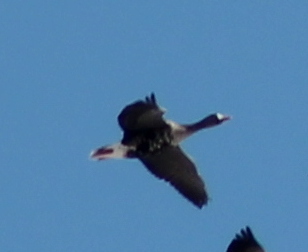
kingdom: Animalia
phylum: Chordata
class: Aves
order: Anseriformes
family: Anatidae
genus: Anser
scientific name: Anser albifrons
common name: Greater white-fronted goose
